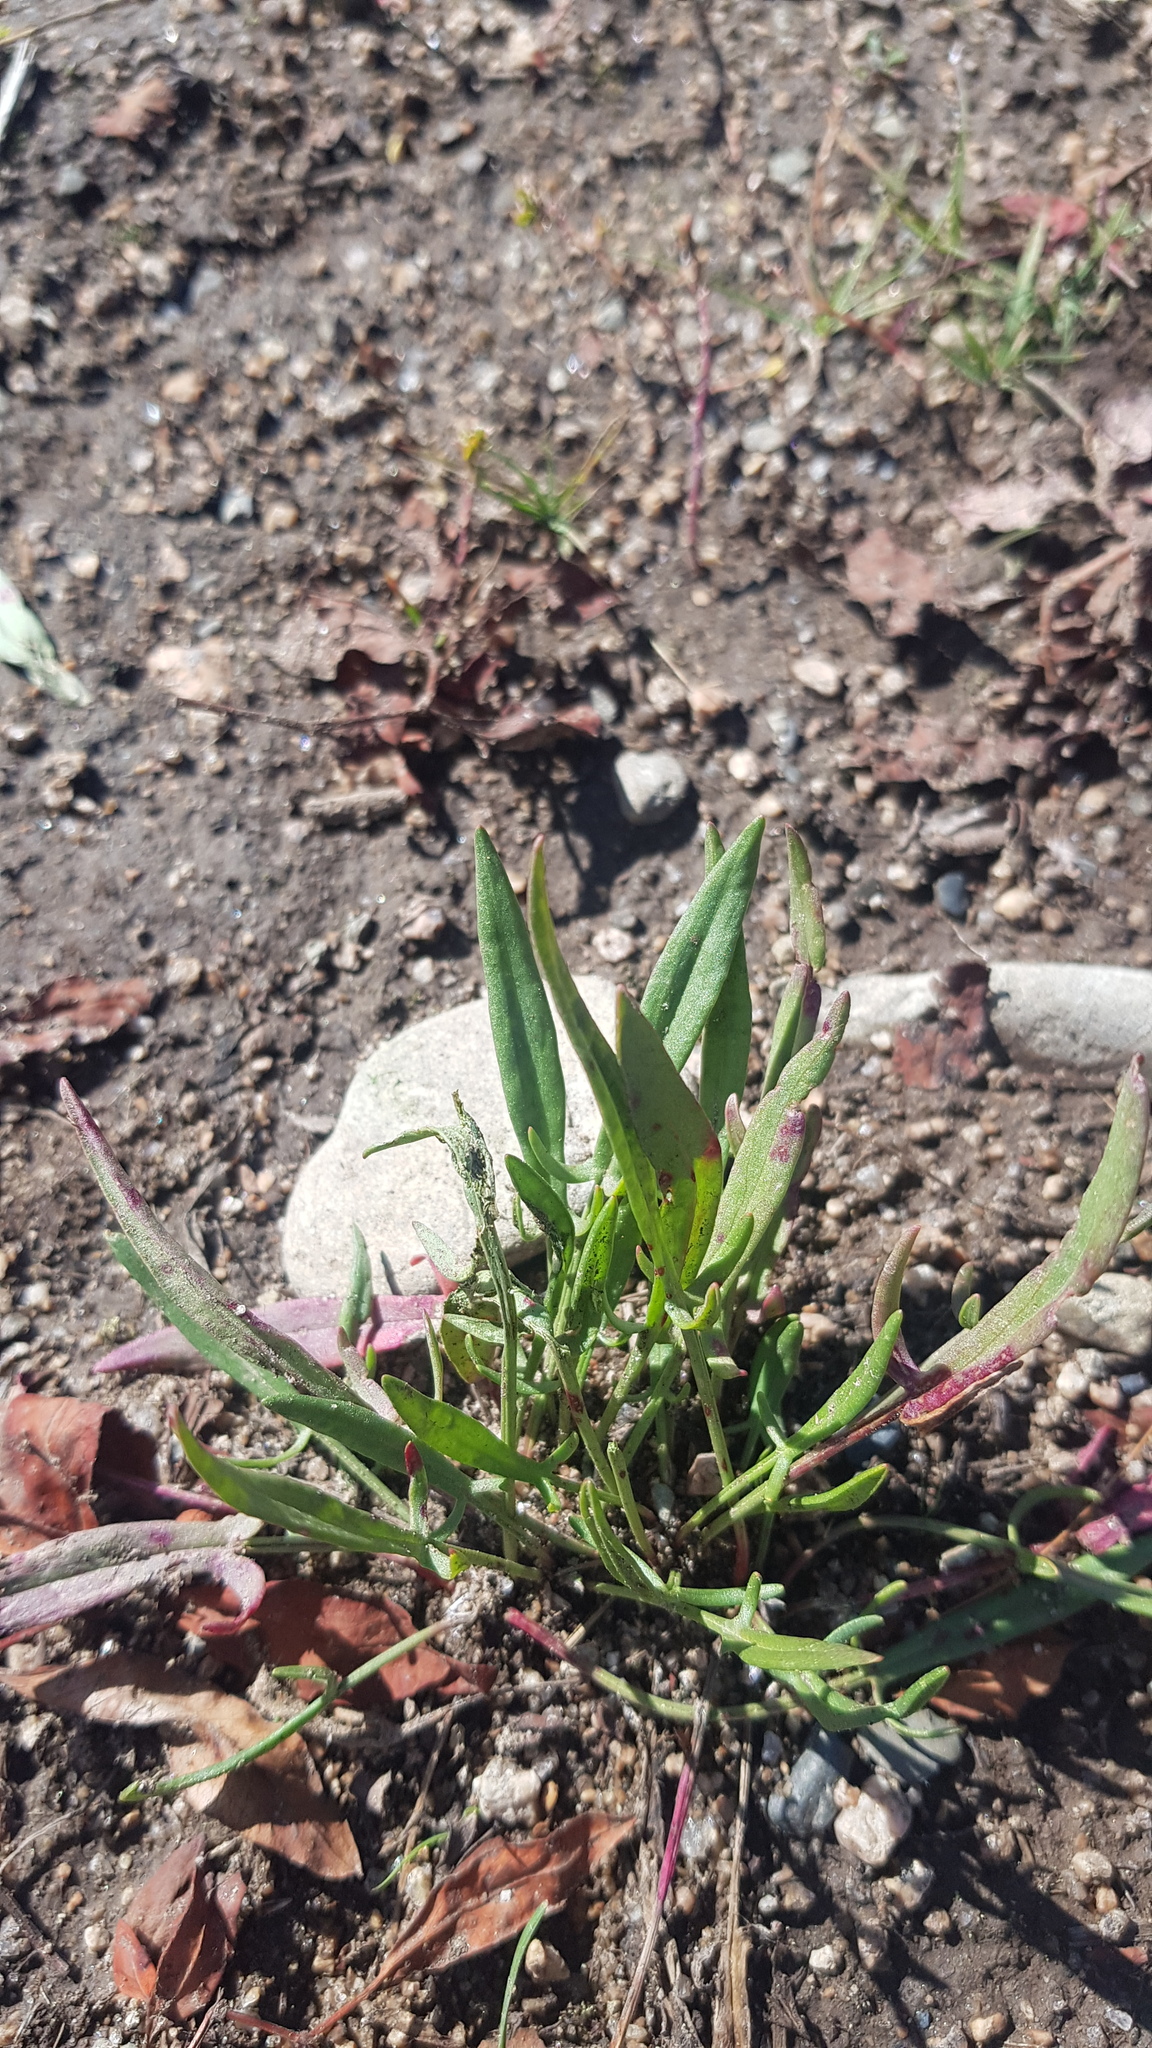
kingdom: Plantae
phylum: Tracheophyta
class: Magnoliopsida
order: Caryophyllales
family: Polygonaceae
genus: Rumex
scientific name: Rumex acetosella
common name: Common sheep sorrel
